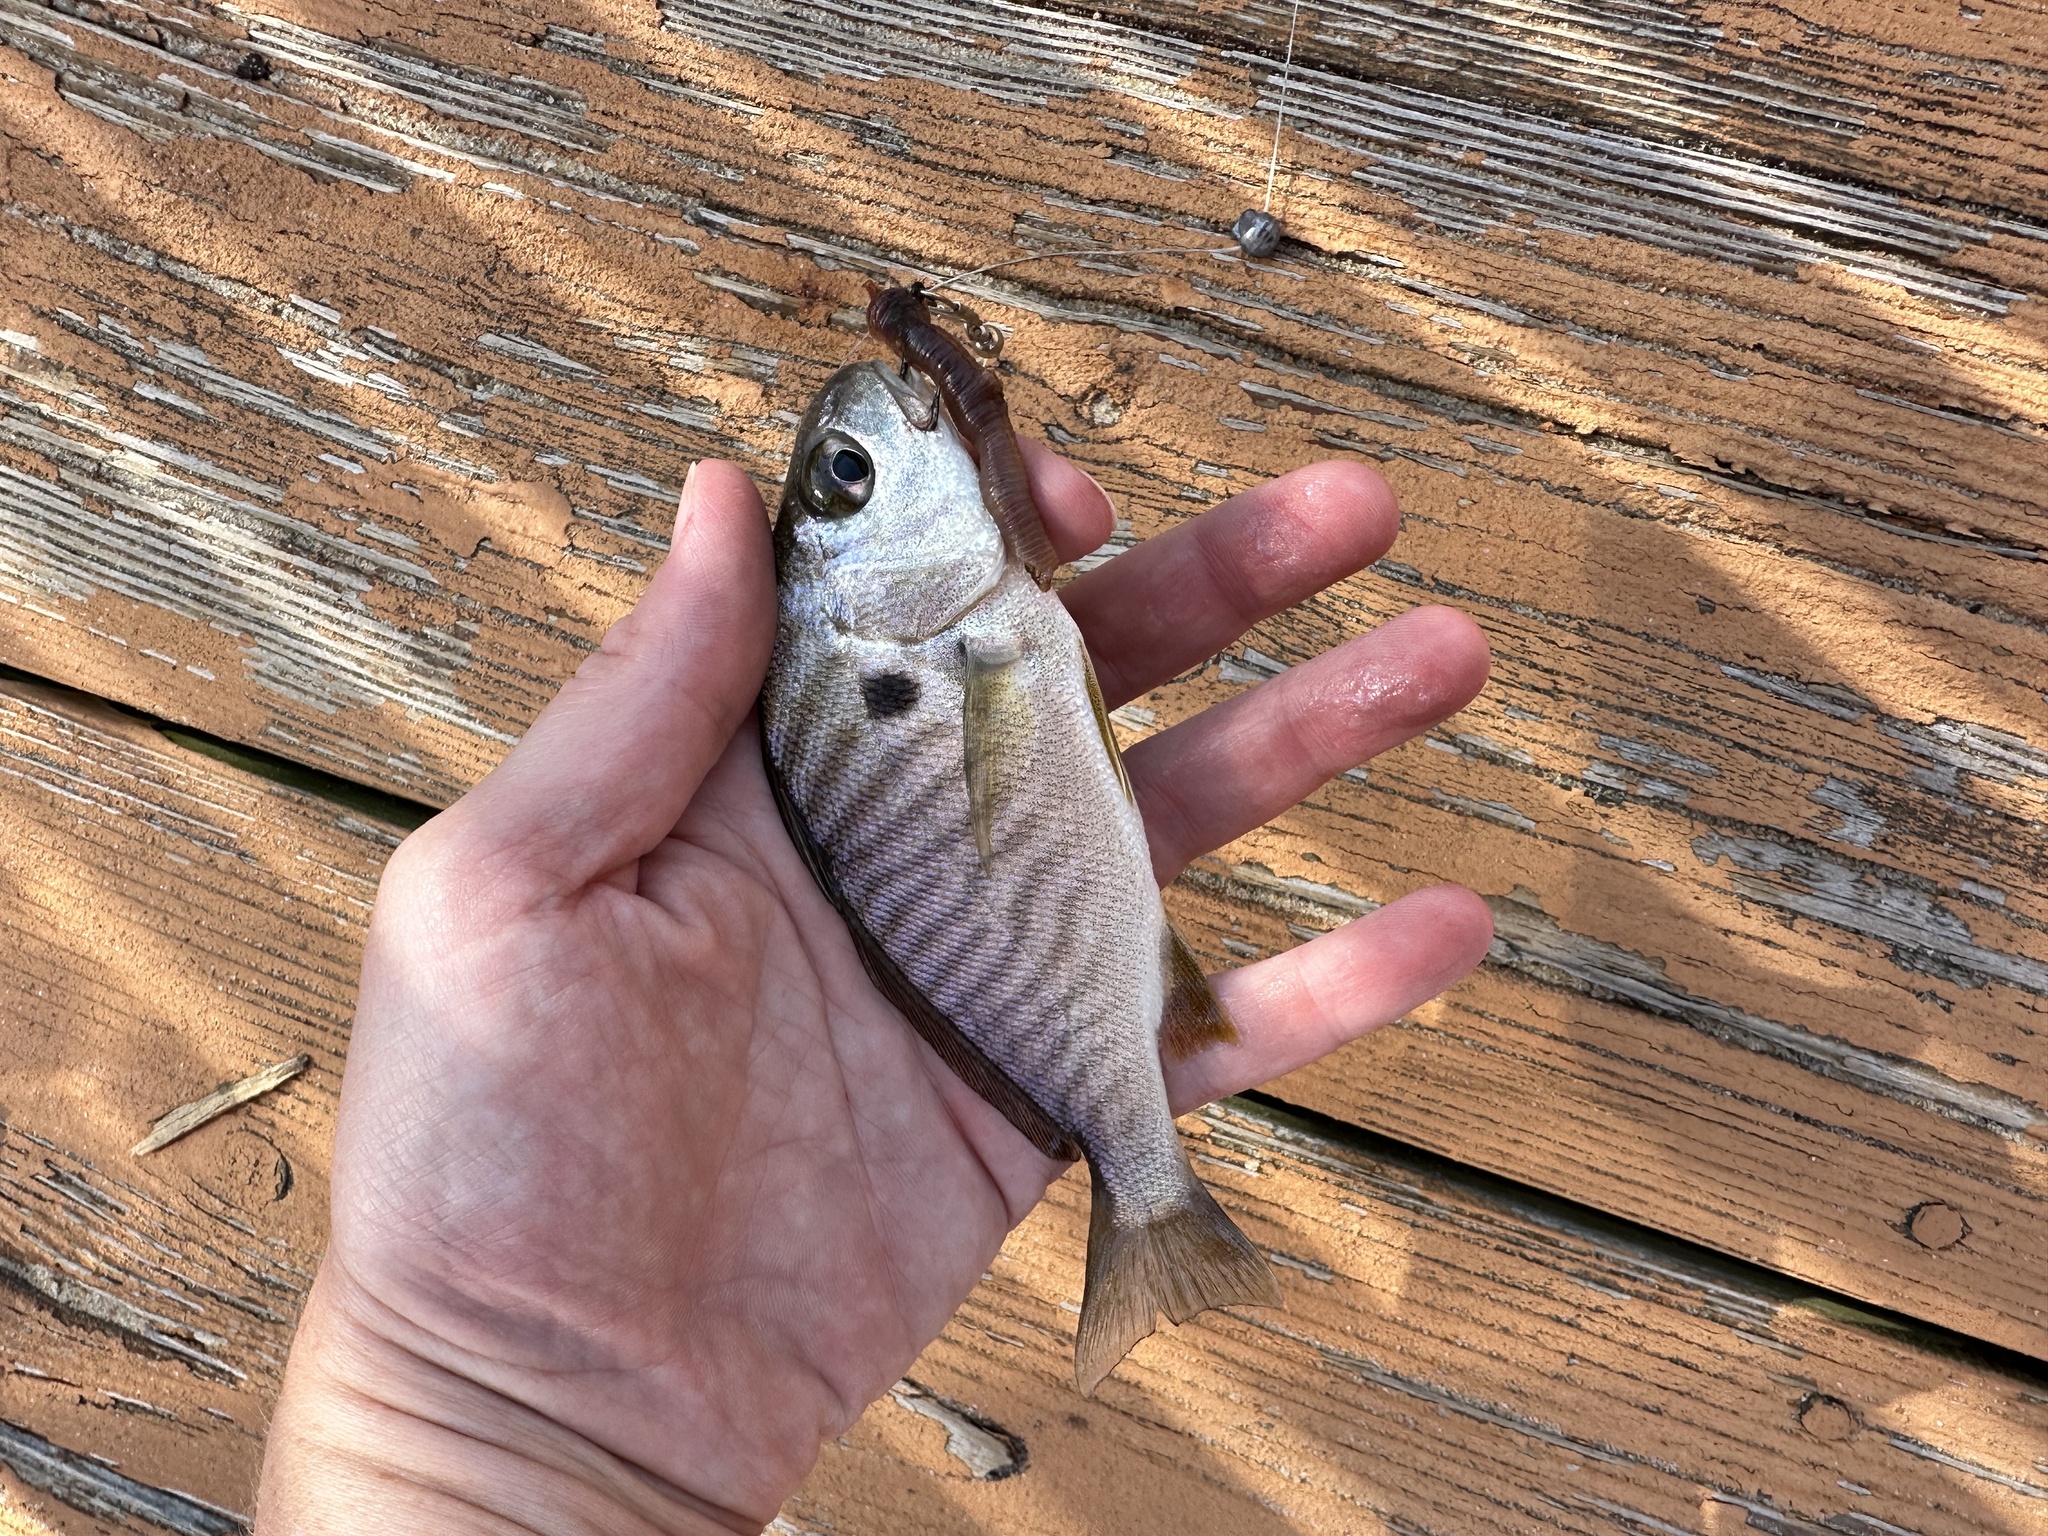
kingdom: Animalia
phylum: Chordata
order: Perciformes
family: Sciaenidae
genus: Leiostomus
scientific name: Leiostomus xanthurus
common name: Spot
